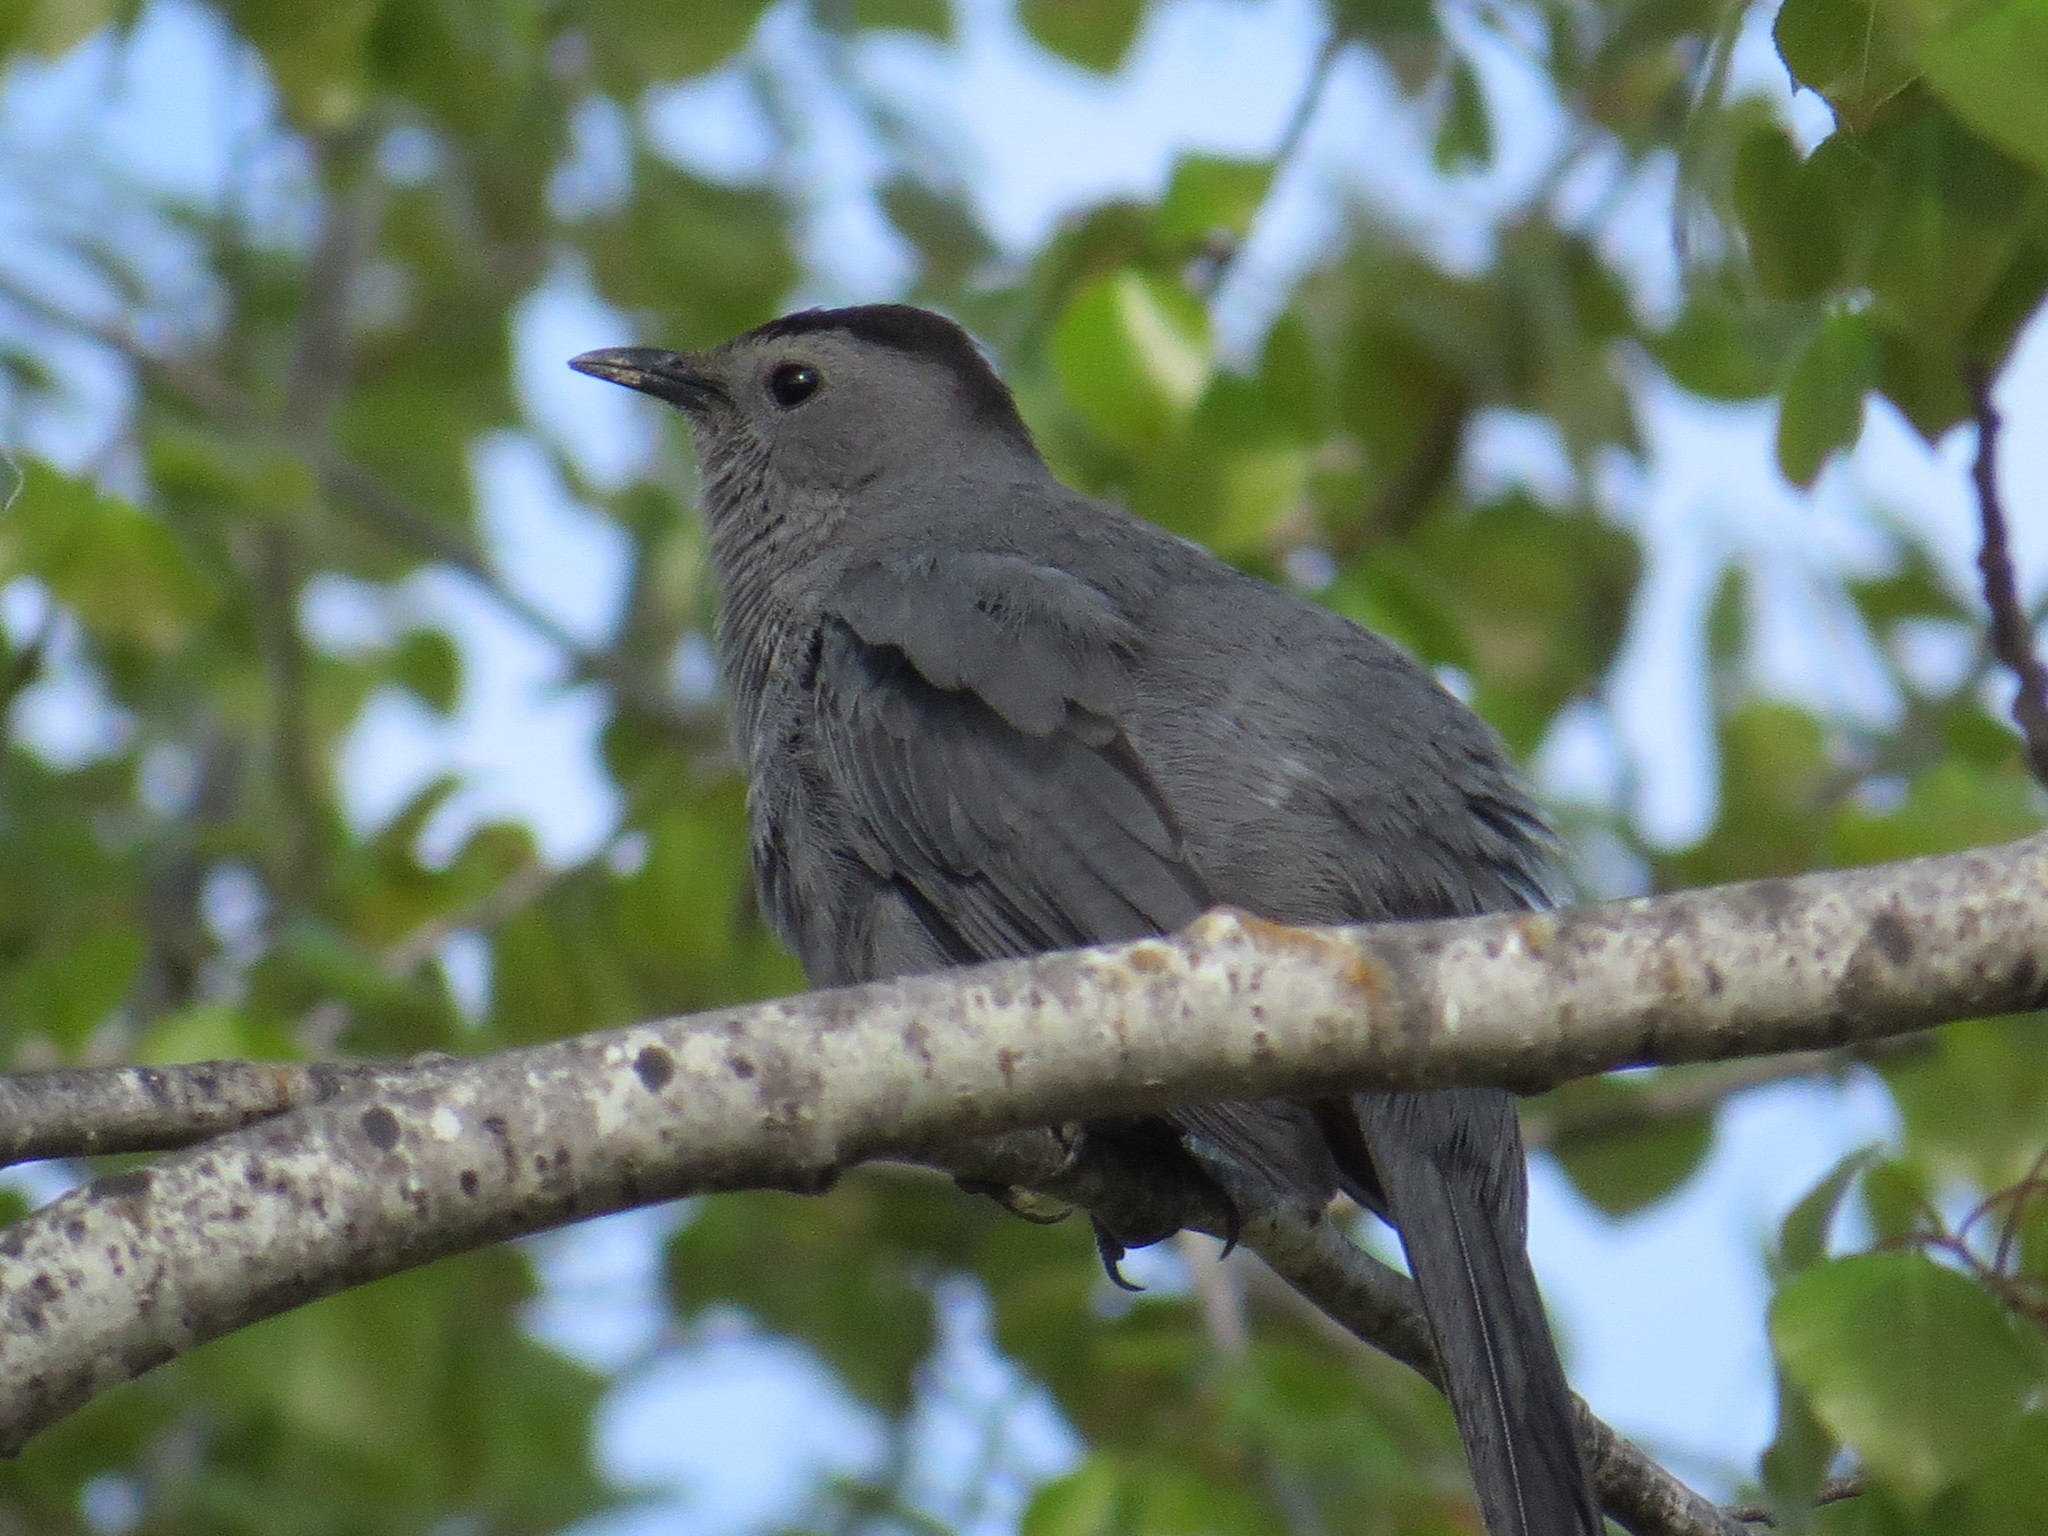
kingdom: Animalia
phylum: Chordata
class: Aves
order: Passeriformes
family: Mimidae
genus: Dumetella
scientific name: Dumetella carolinensis
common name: Gray catbird
